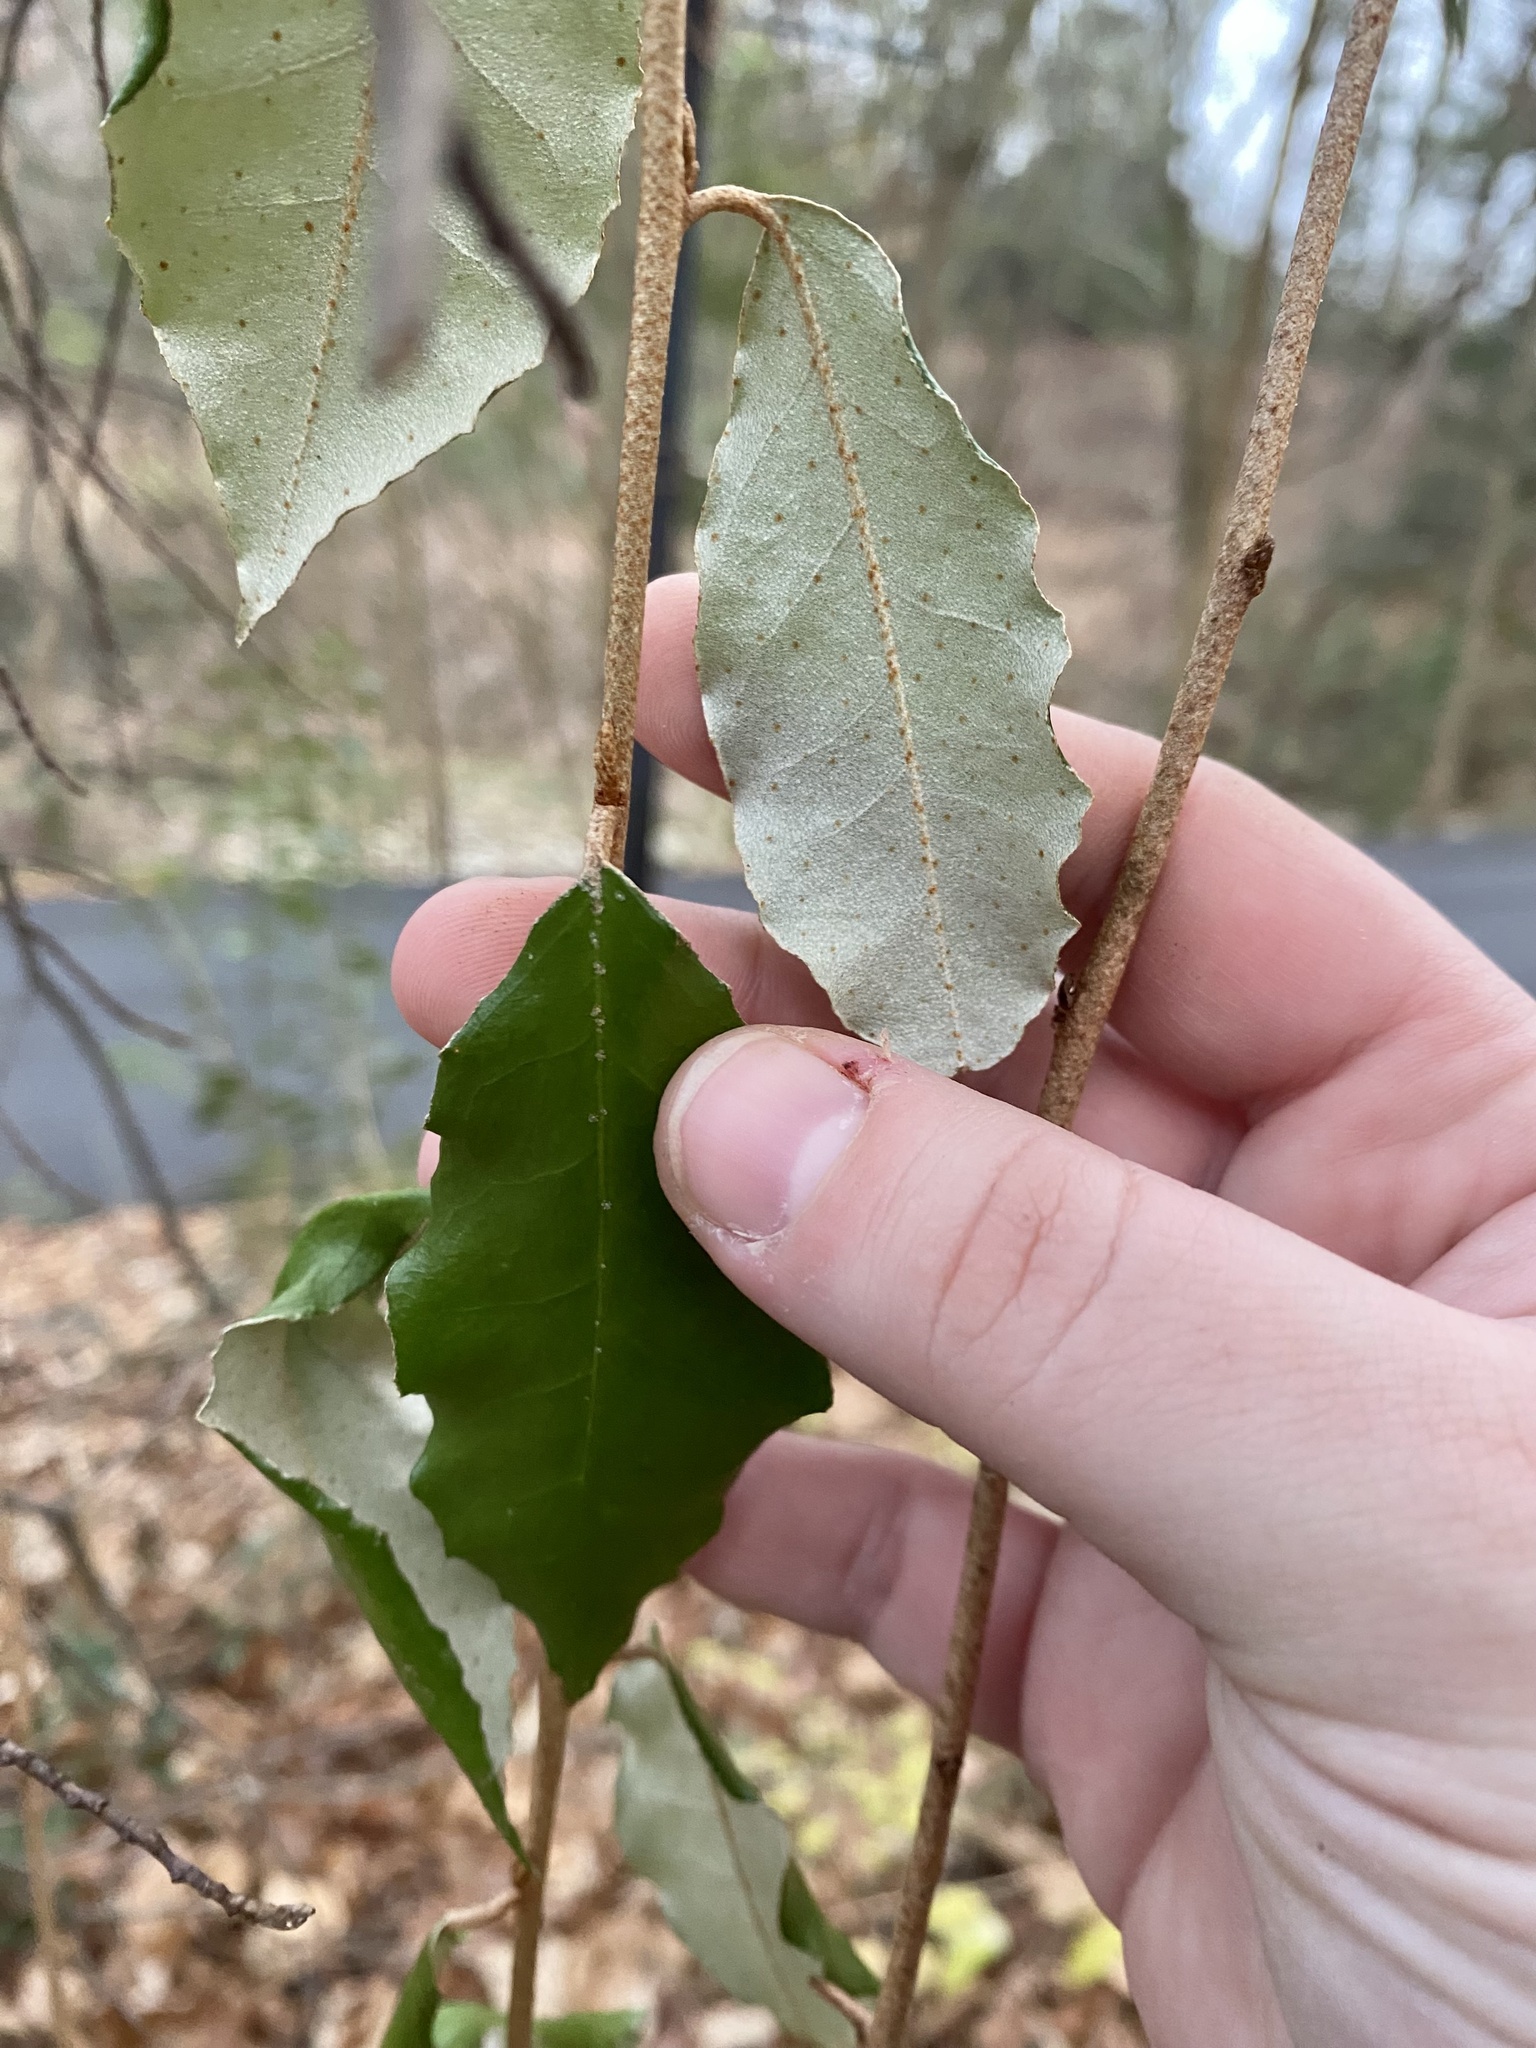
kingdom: Plantae
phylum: Tracheophyta
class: Magnoliopsida
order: Rosales
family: Elaeagnaceae
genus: Elaeagnus
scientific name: Elaeagnus pungens
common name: Spiny oleaster
